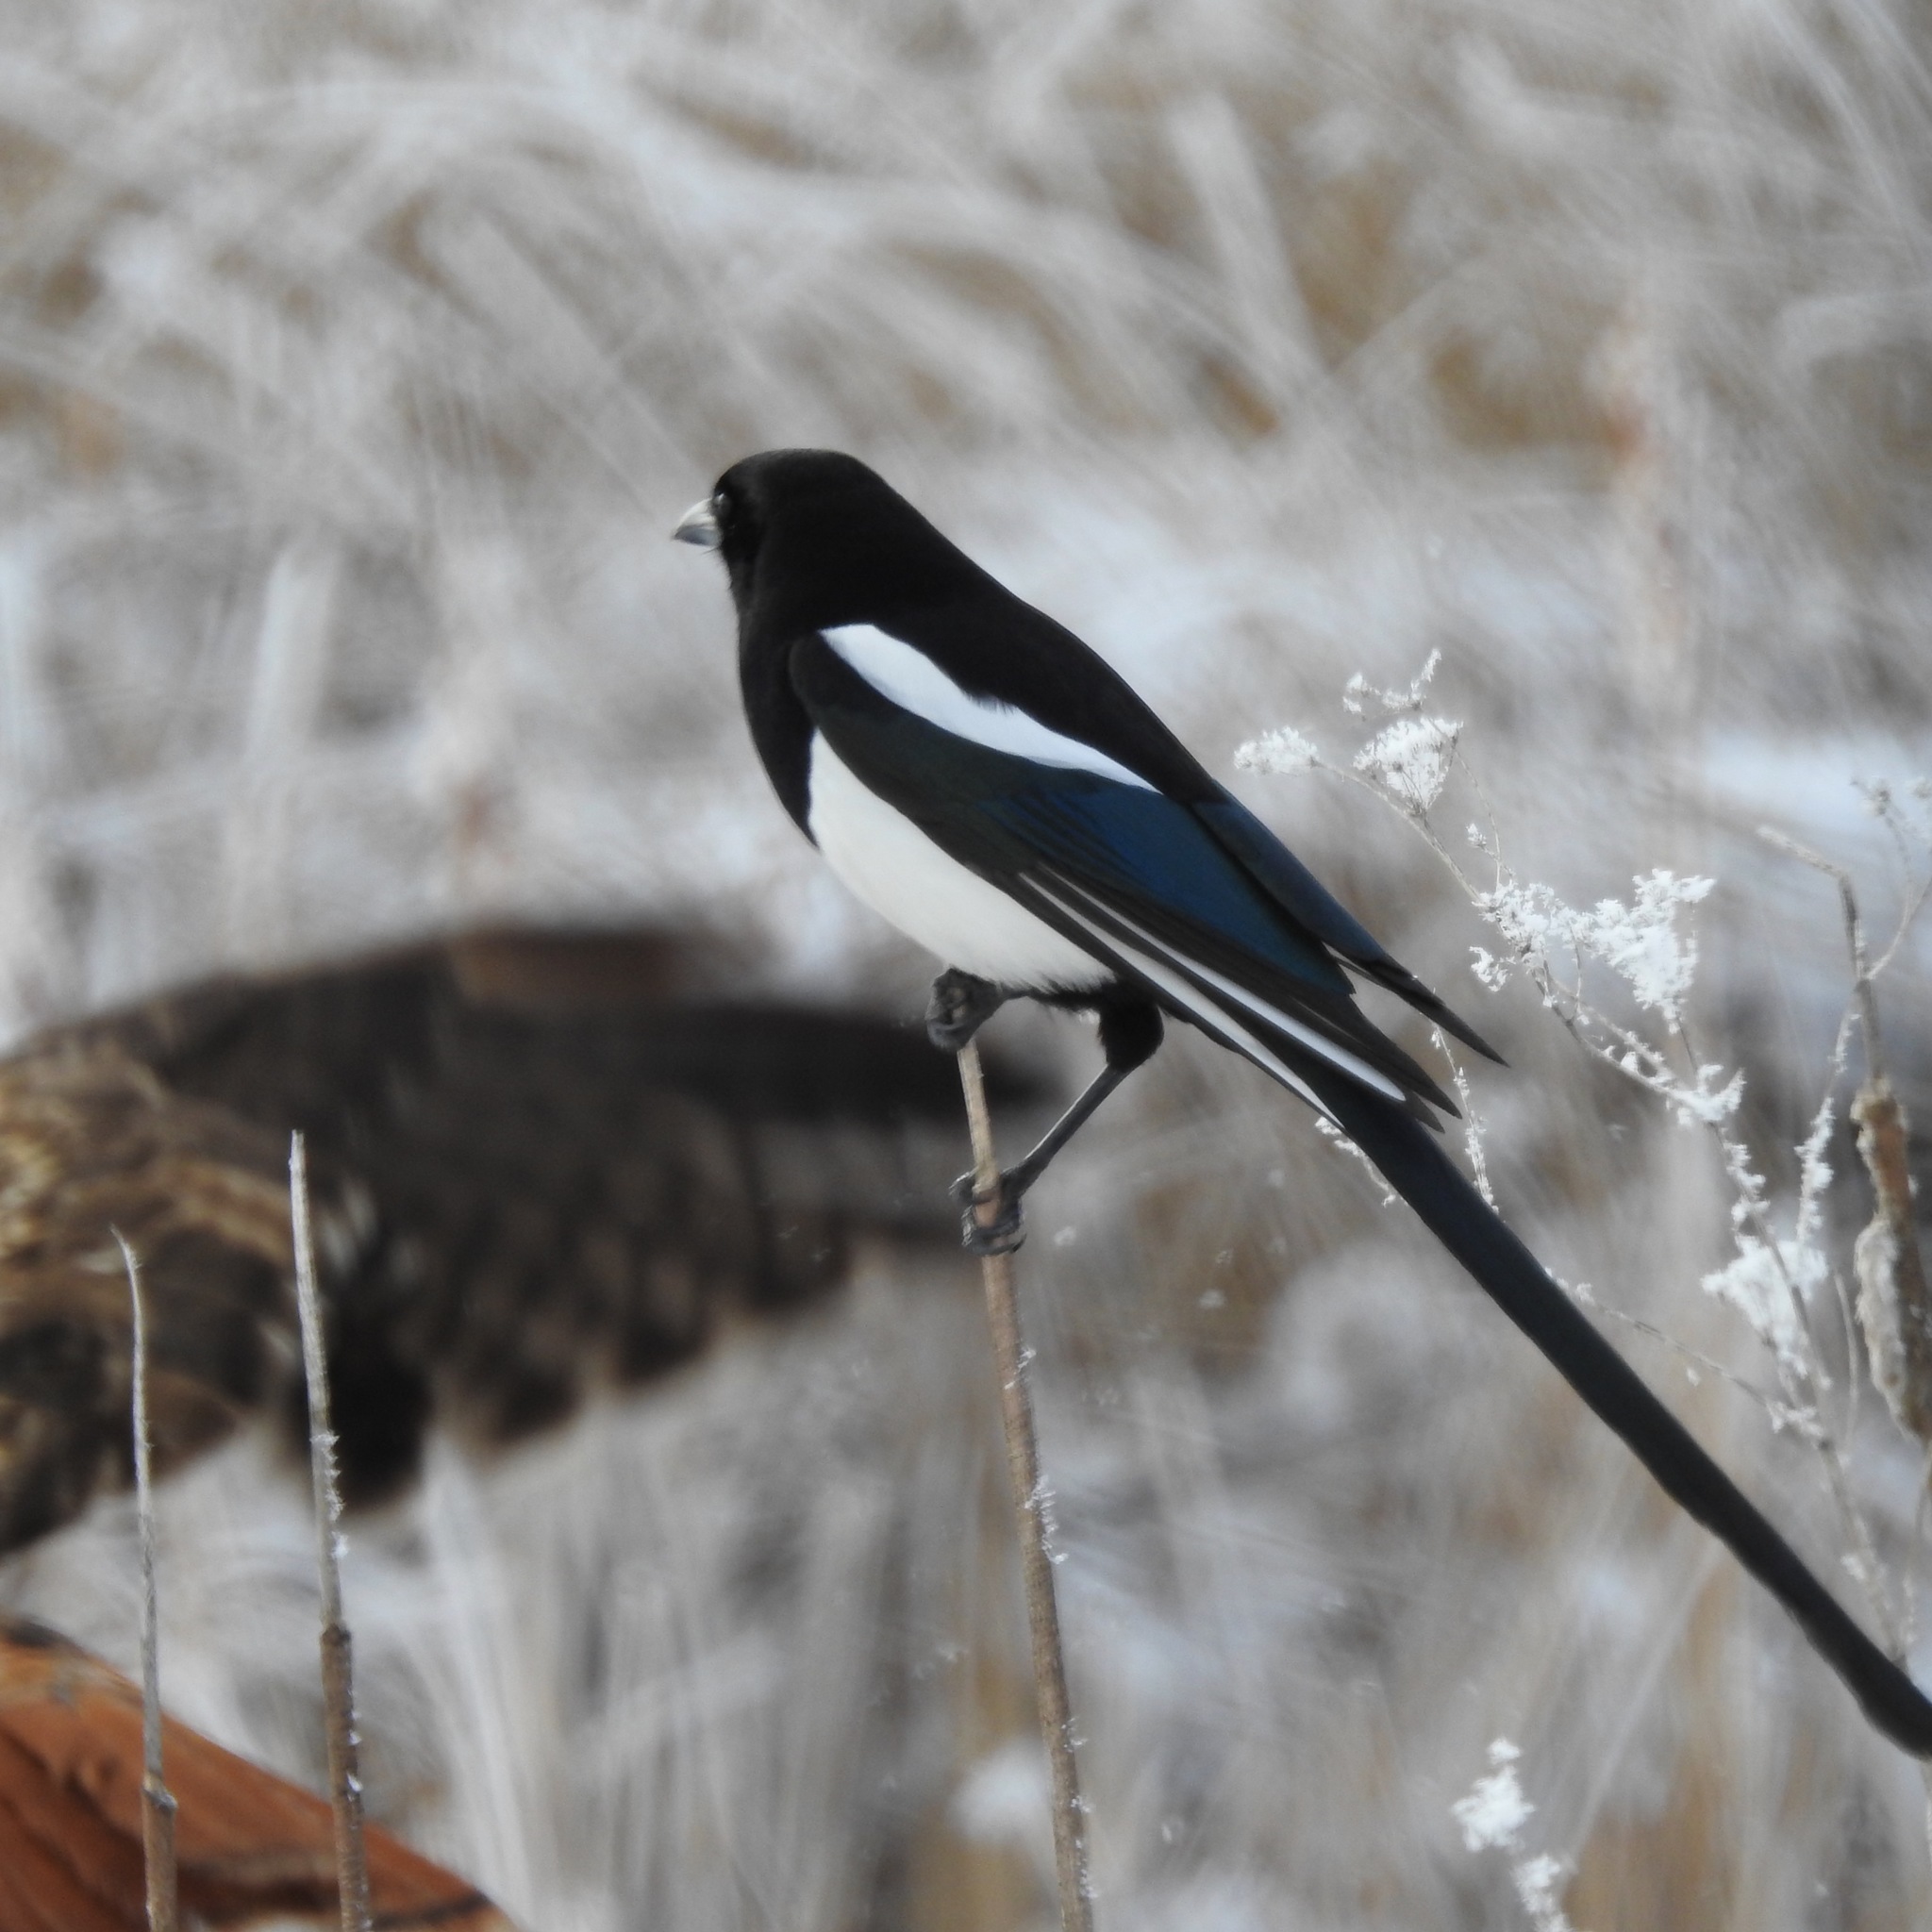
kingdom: Animalia
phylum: Chordata
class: Aves
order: Accipitriformes
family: Accipitridae
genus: Buteo
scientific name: Buteo jamaicensis
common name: Red-tailed hawk
